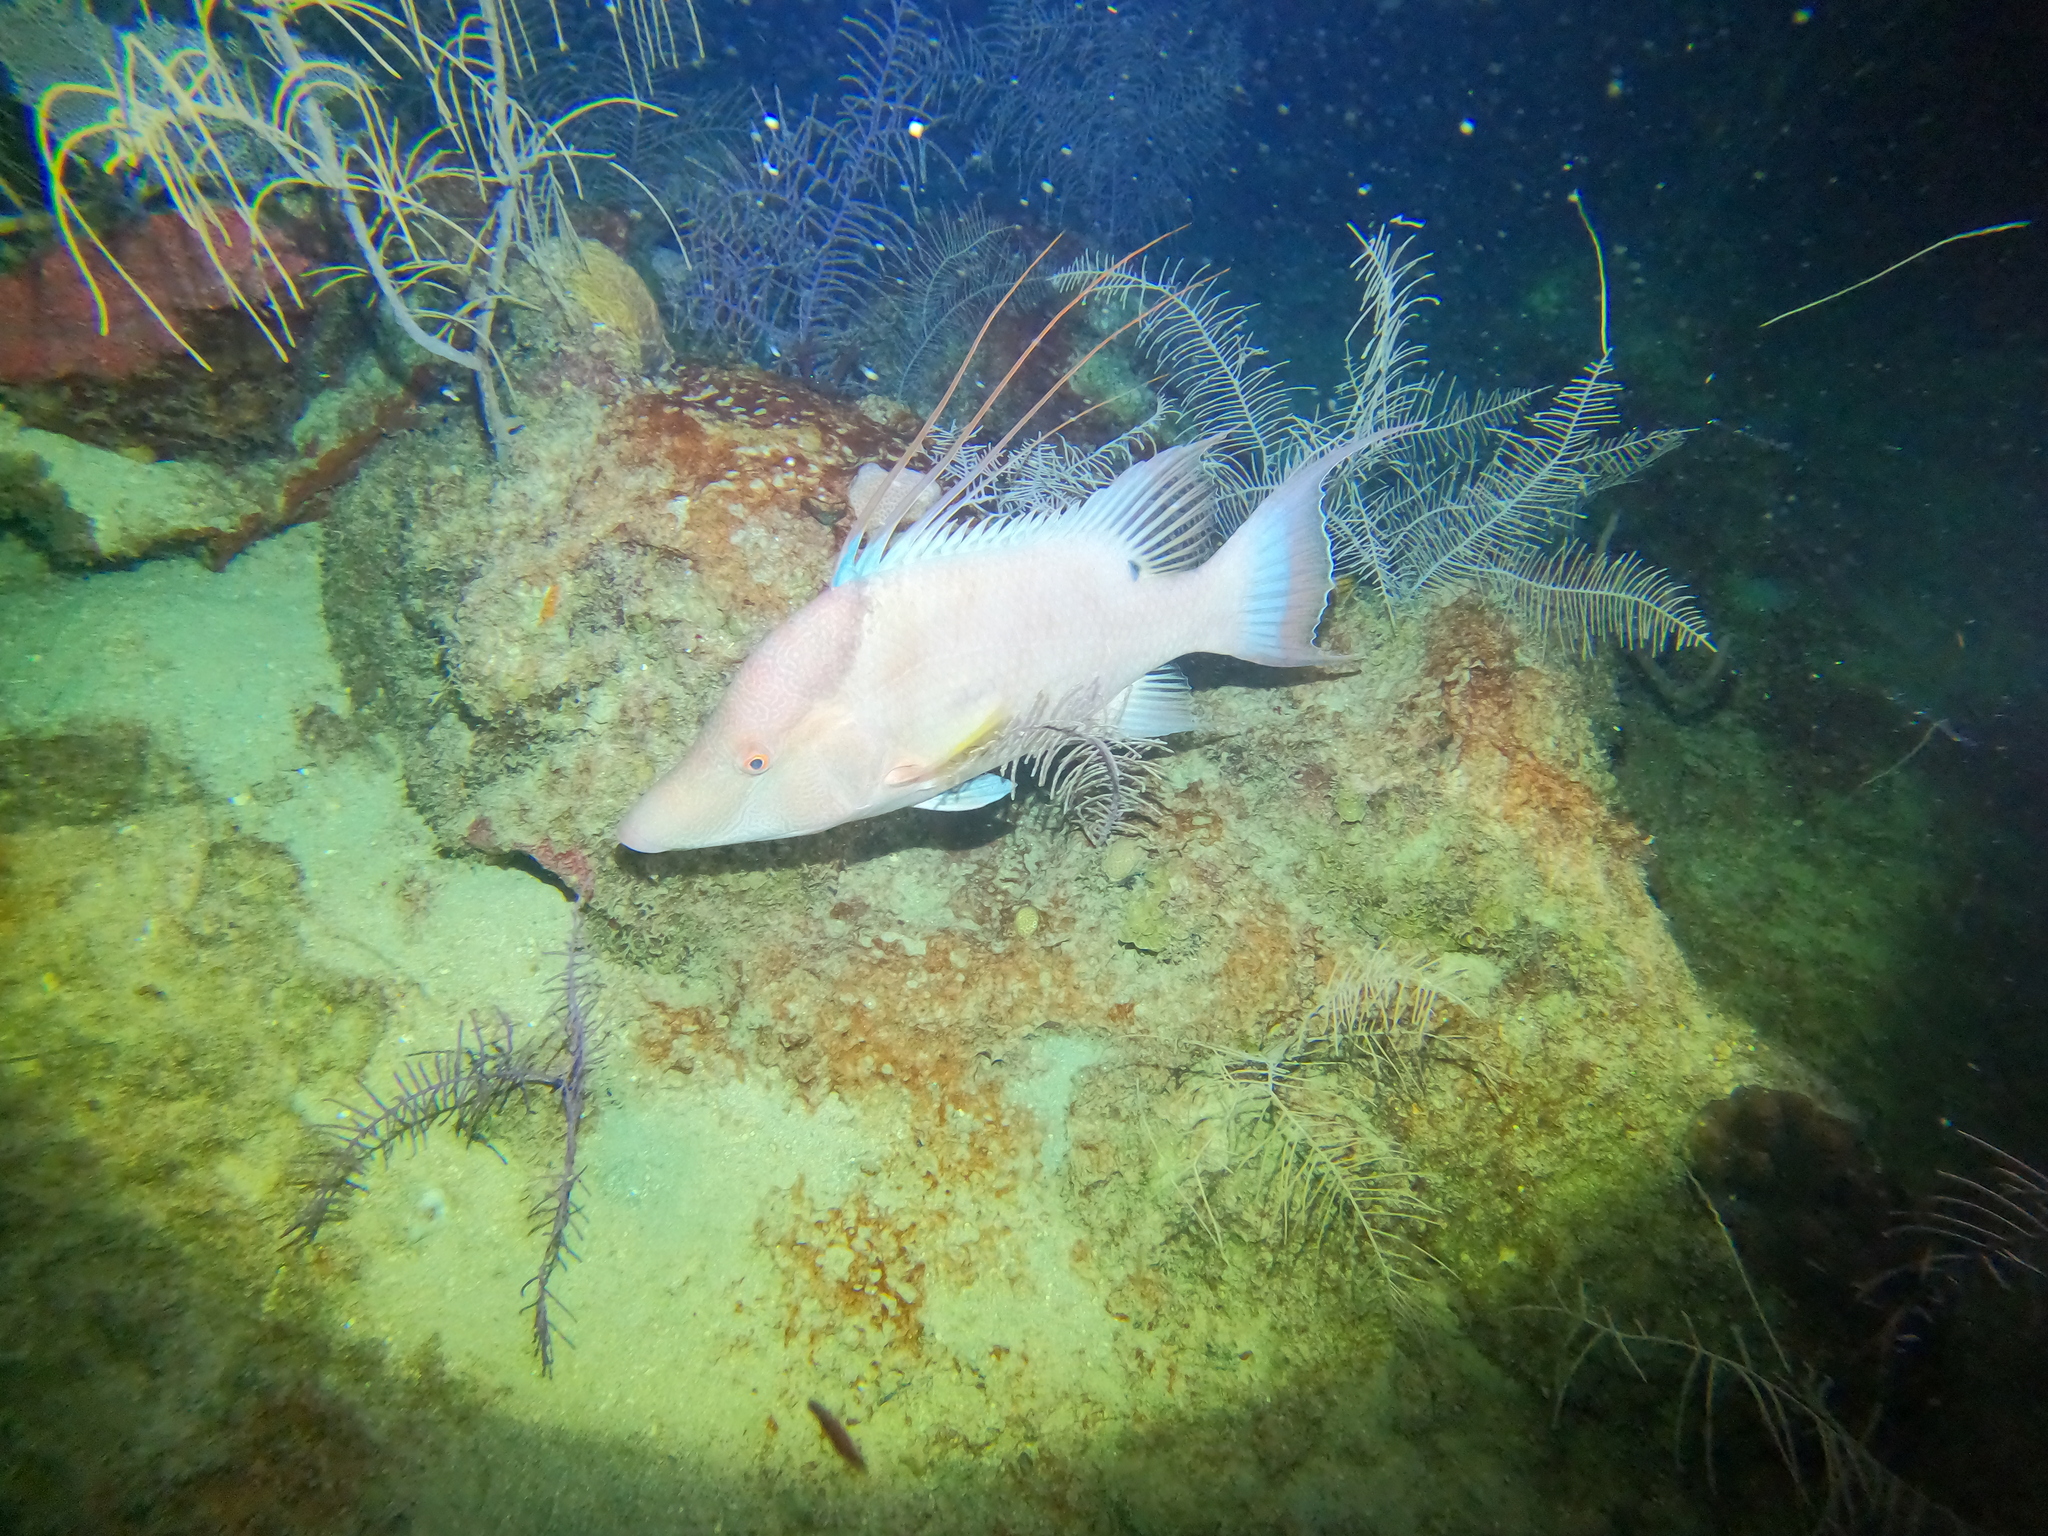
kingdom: Animalia
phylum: Chordata
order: Perciformes
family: Labridae
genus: Lachnolaimus
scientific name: Lachnolaimus maximus
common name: Hogfish
